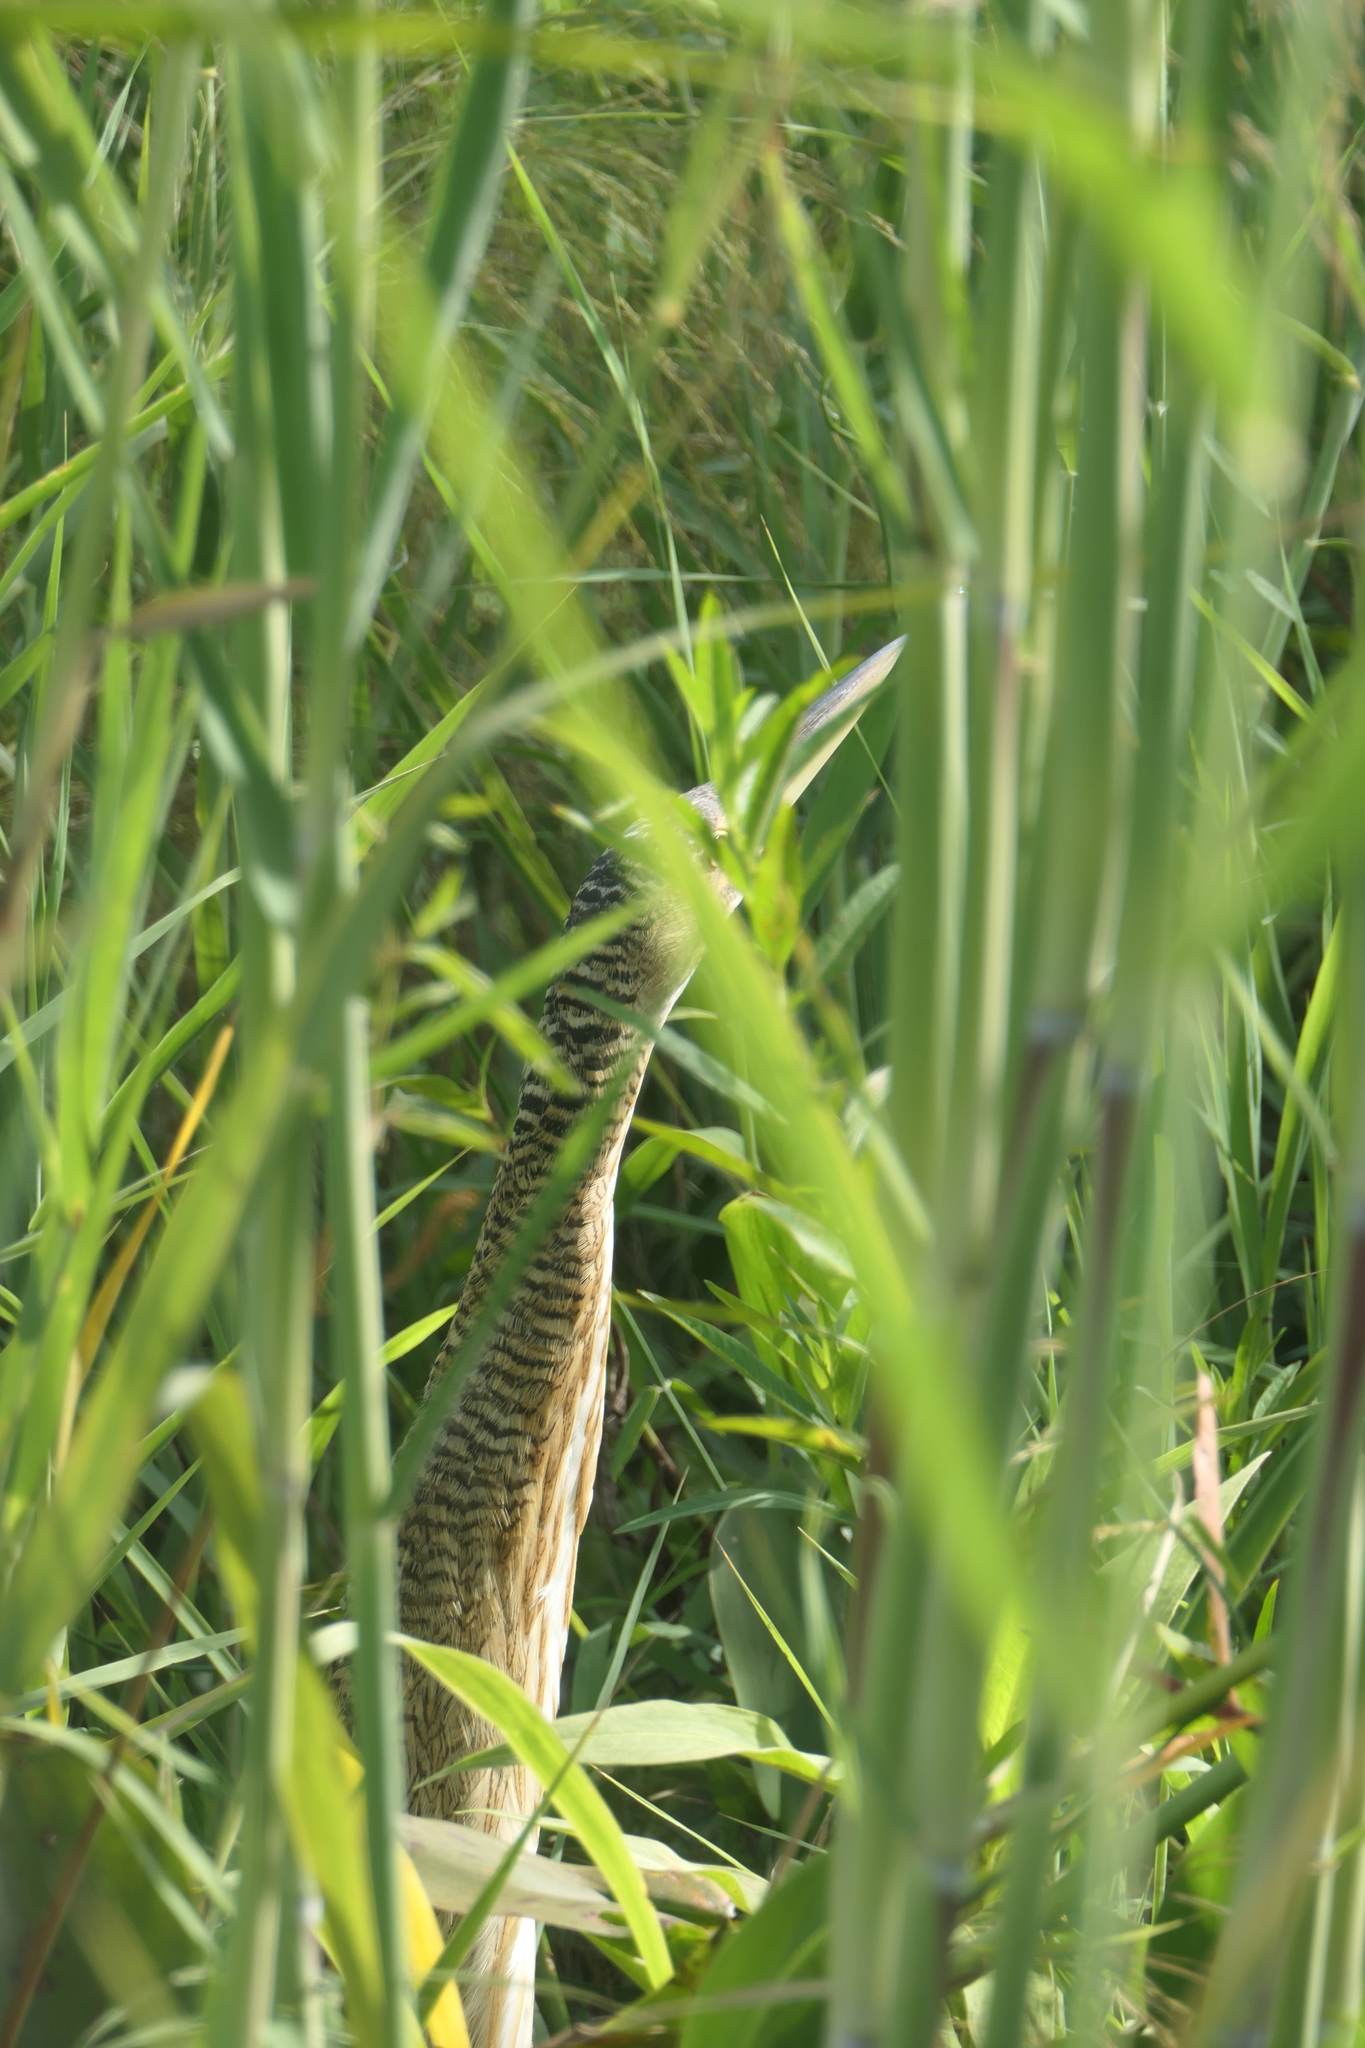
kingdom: Animalia
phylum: Chordata
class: Aves
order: Pelecaniformes
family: Ardeidae
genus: Botaurus
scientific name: Botaurus pinnatus
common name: Pinnated bittern
